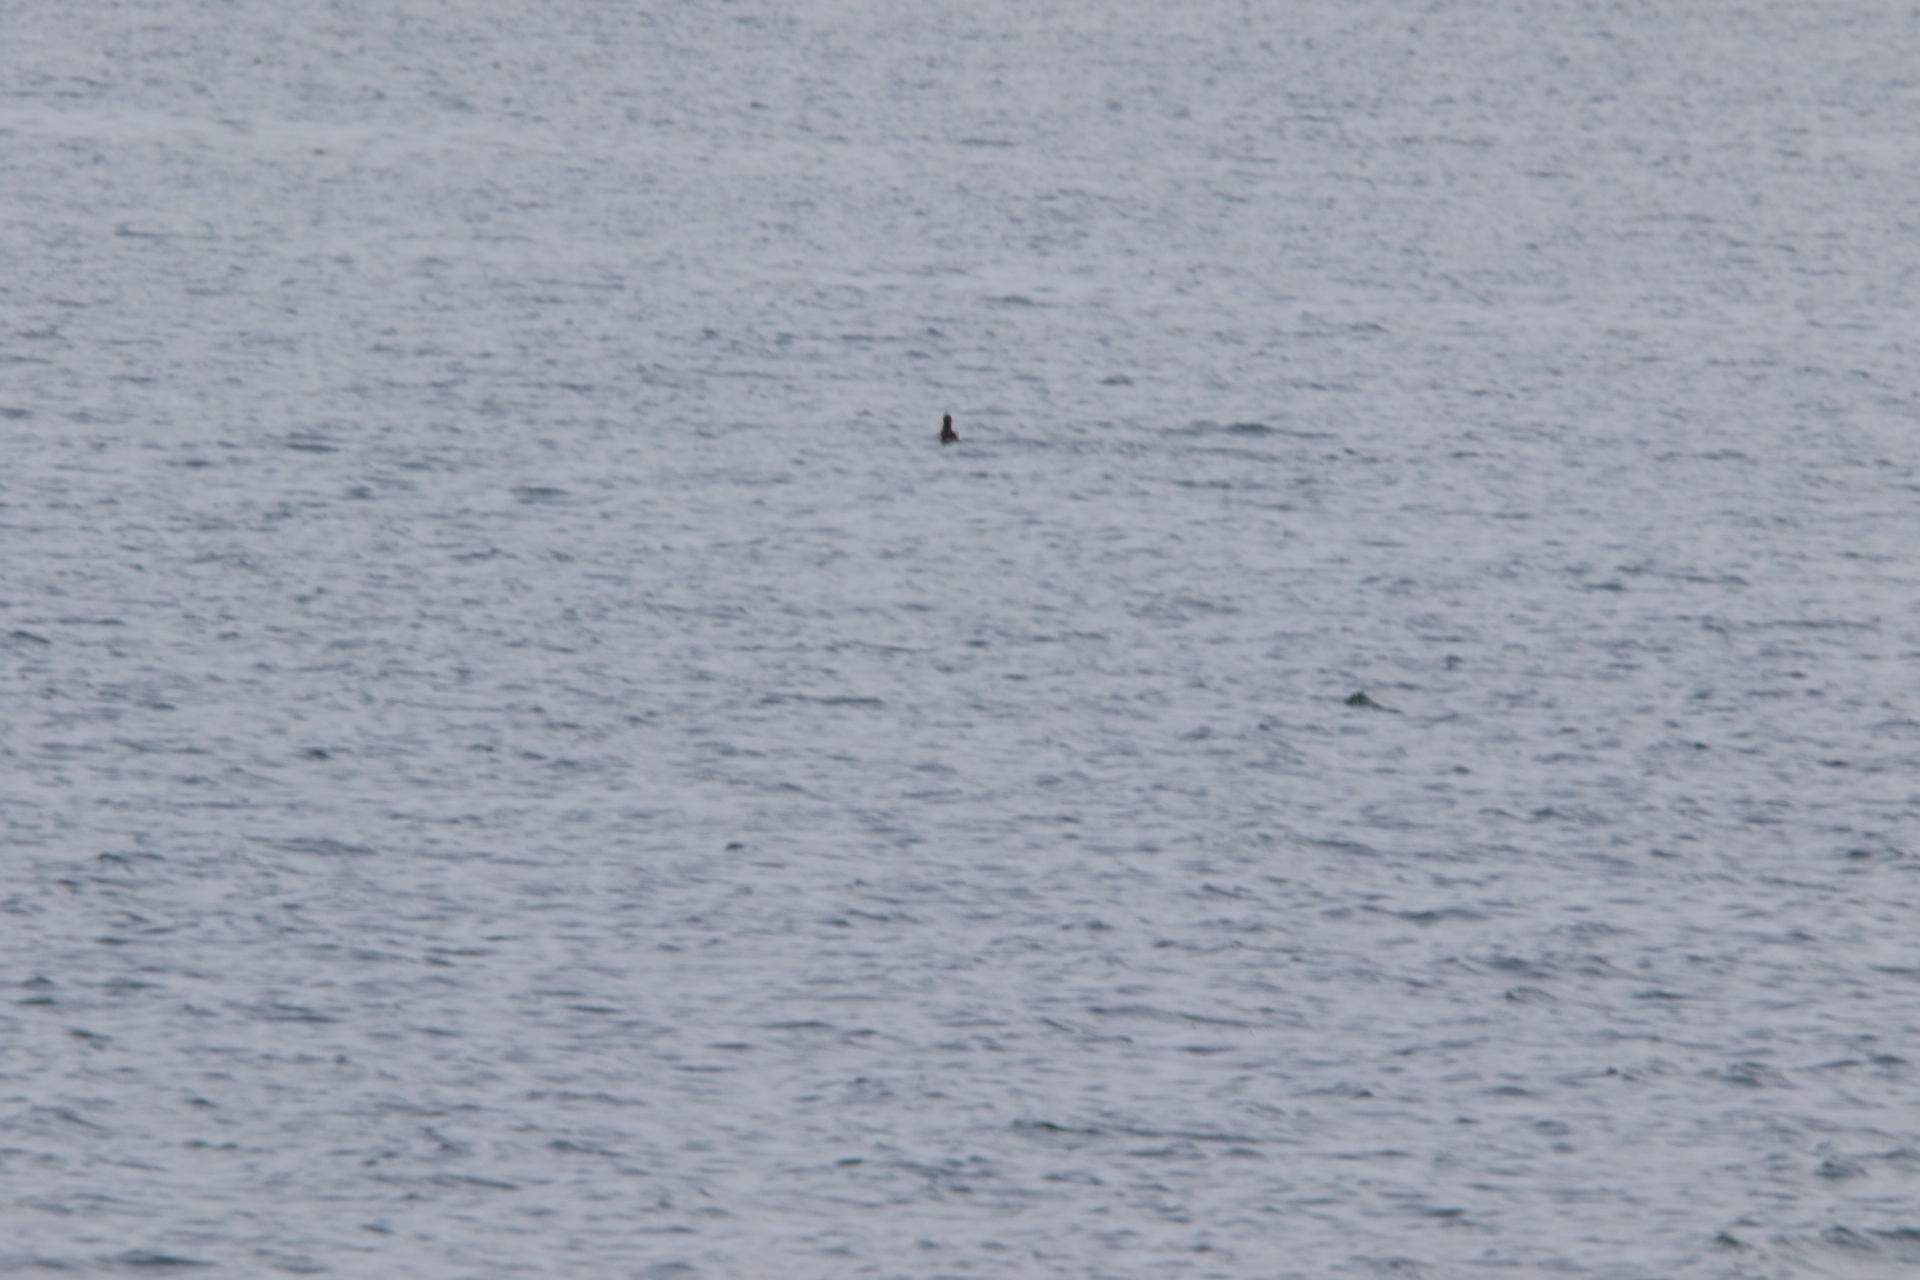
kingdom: Animalia
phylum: Chordata
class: Aves
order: Charadriiformes
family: Alcidae
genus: Cepphus
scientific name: Cepphus columba
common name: Pigeon guillemot
